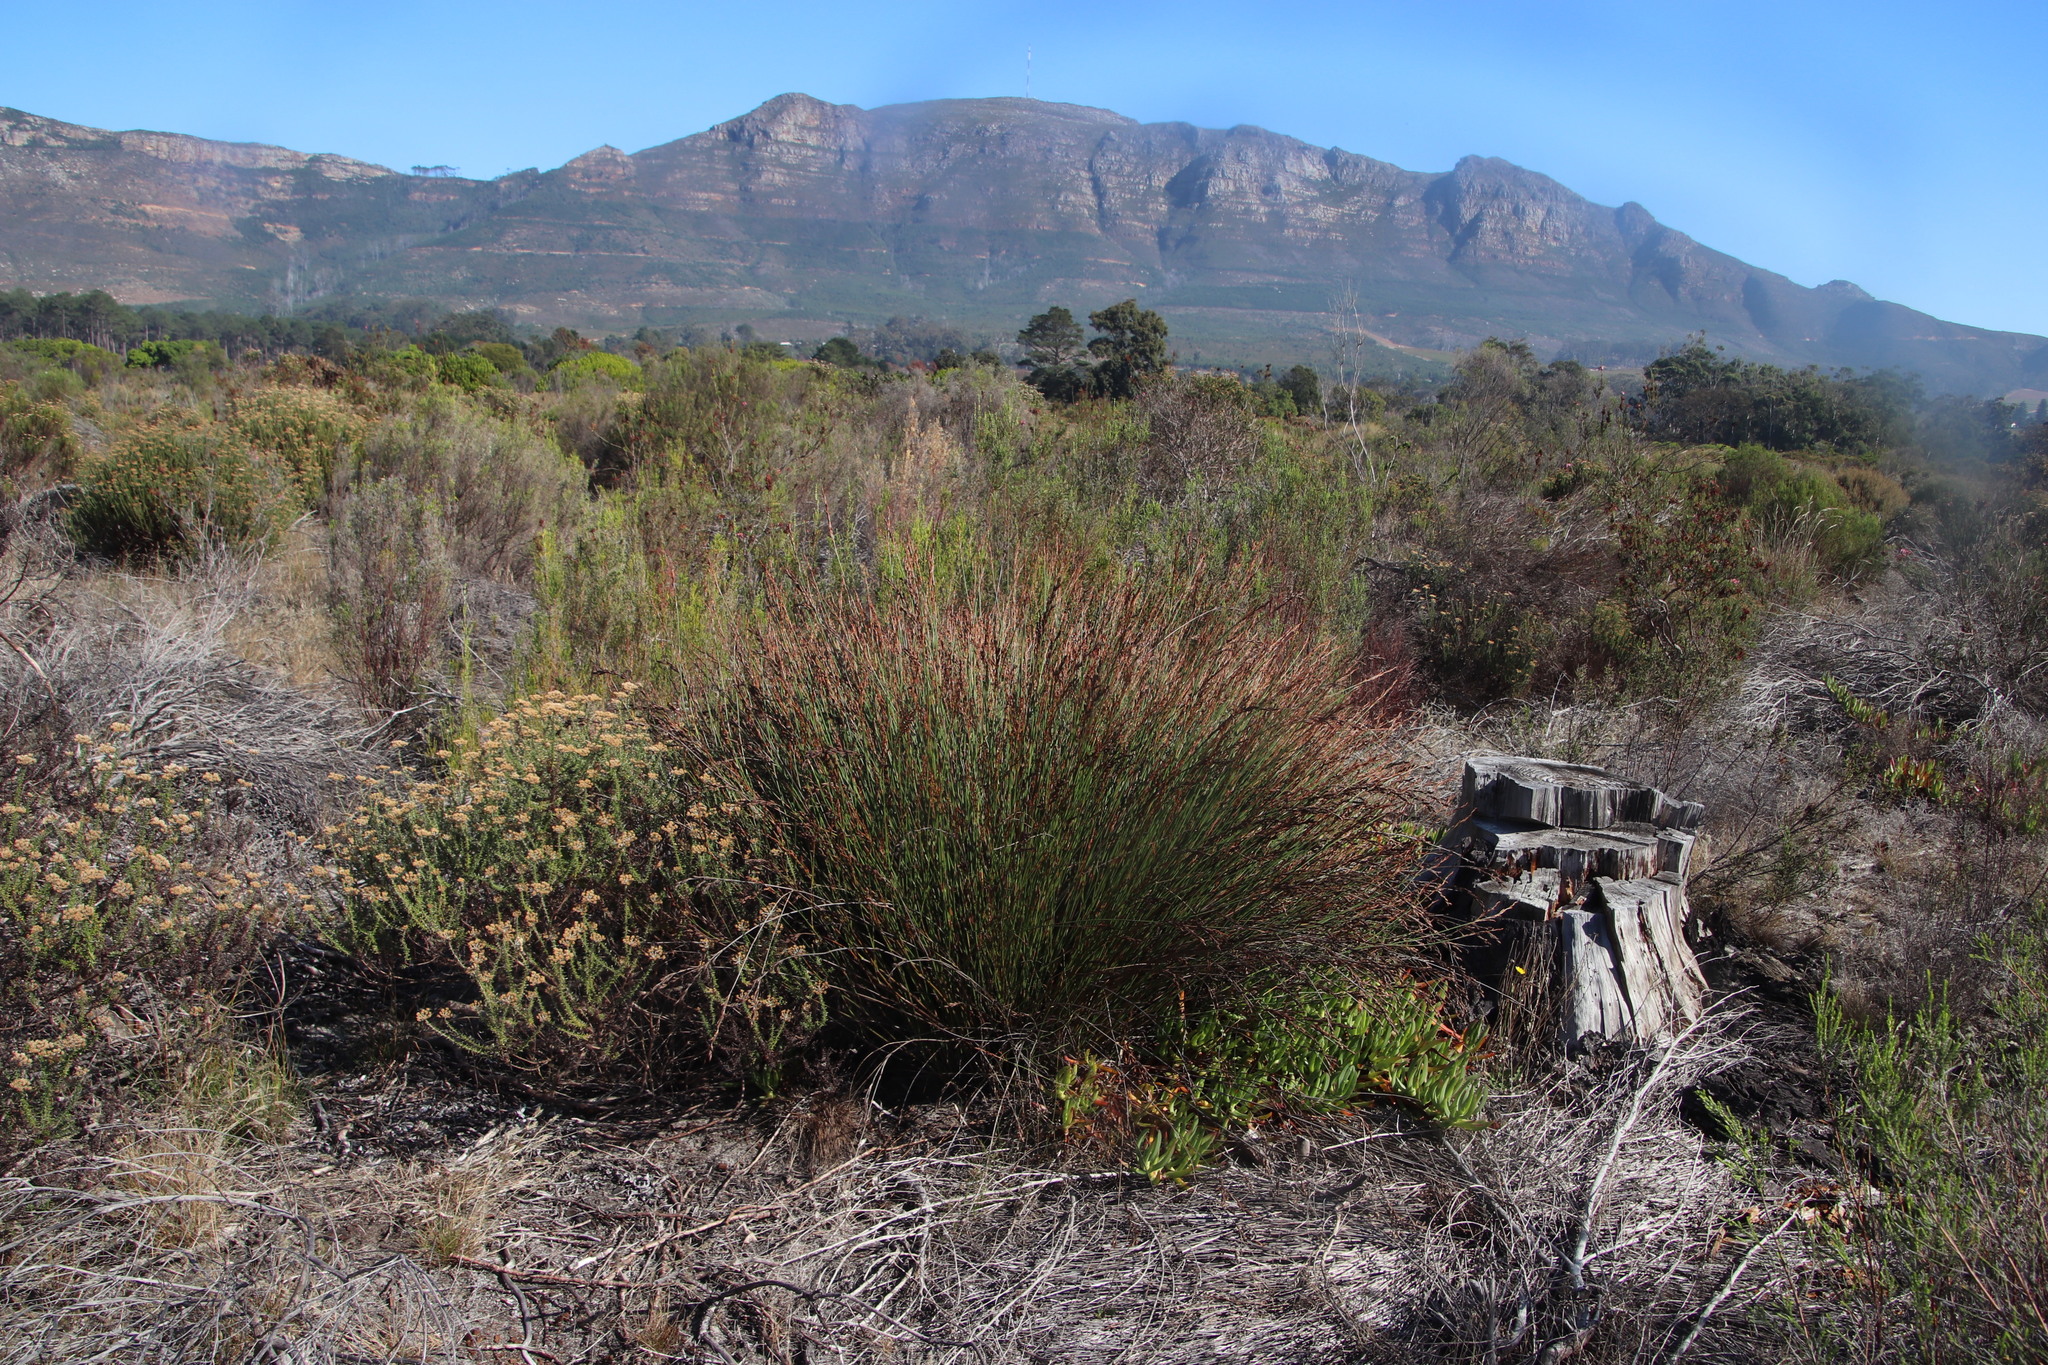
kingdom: Plantae
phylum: Tracheophyta
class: Liliopsida
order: Poales
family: Restionaceae
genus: Restio
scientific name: Restio bifurcus
